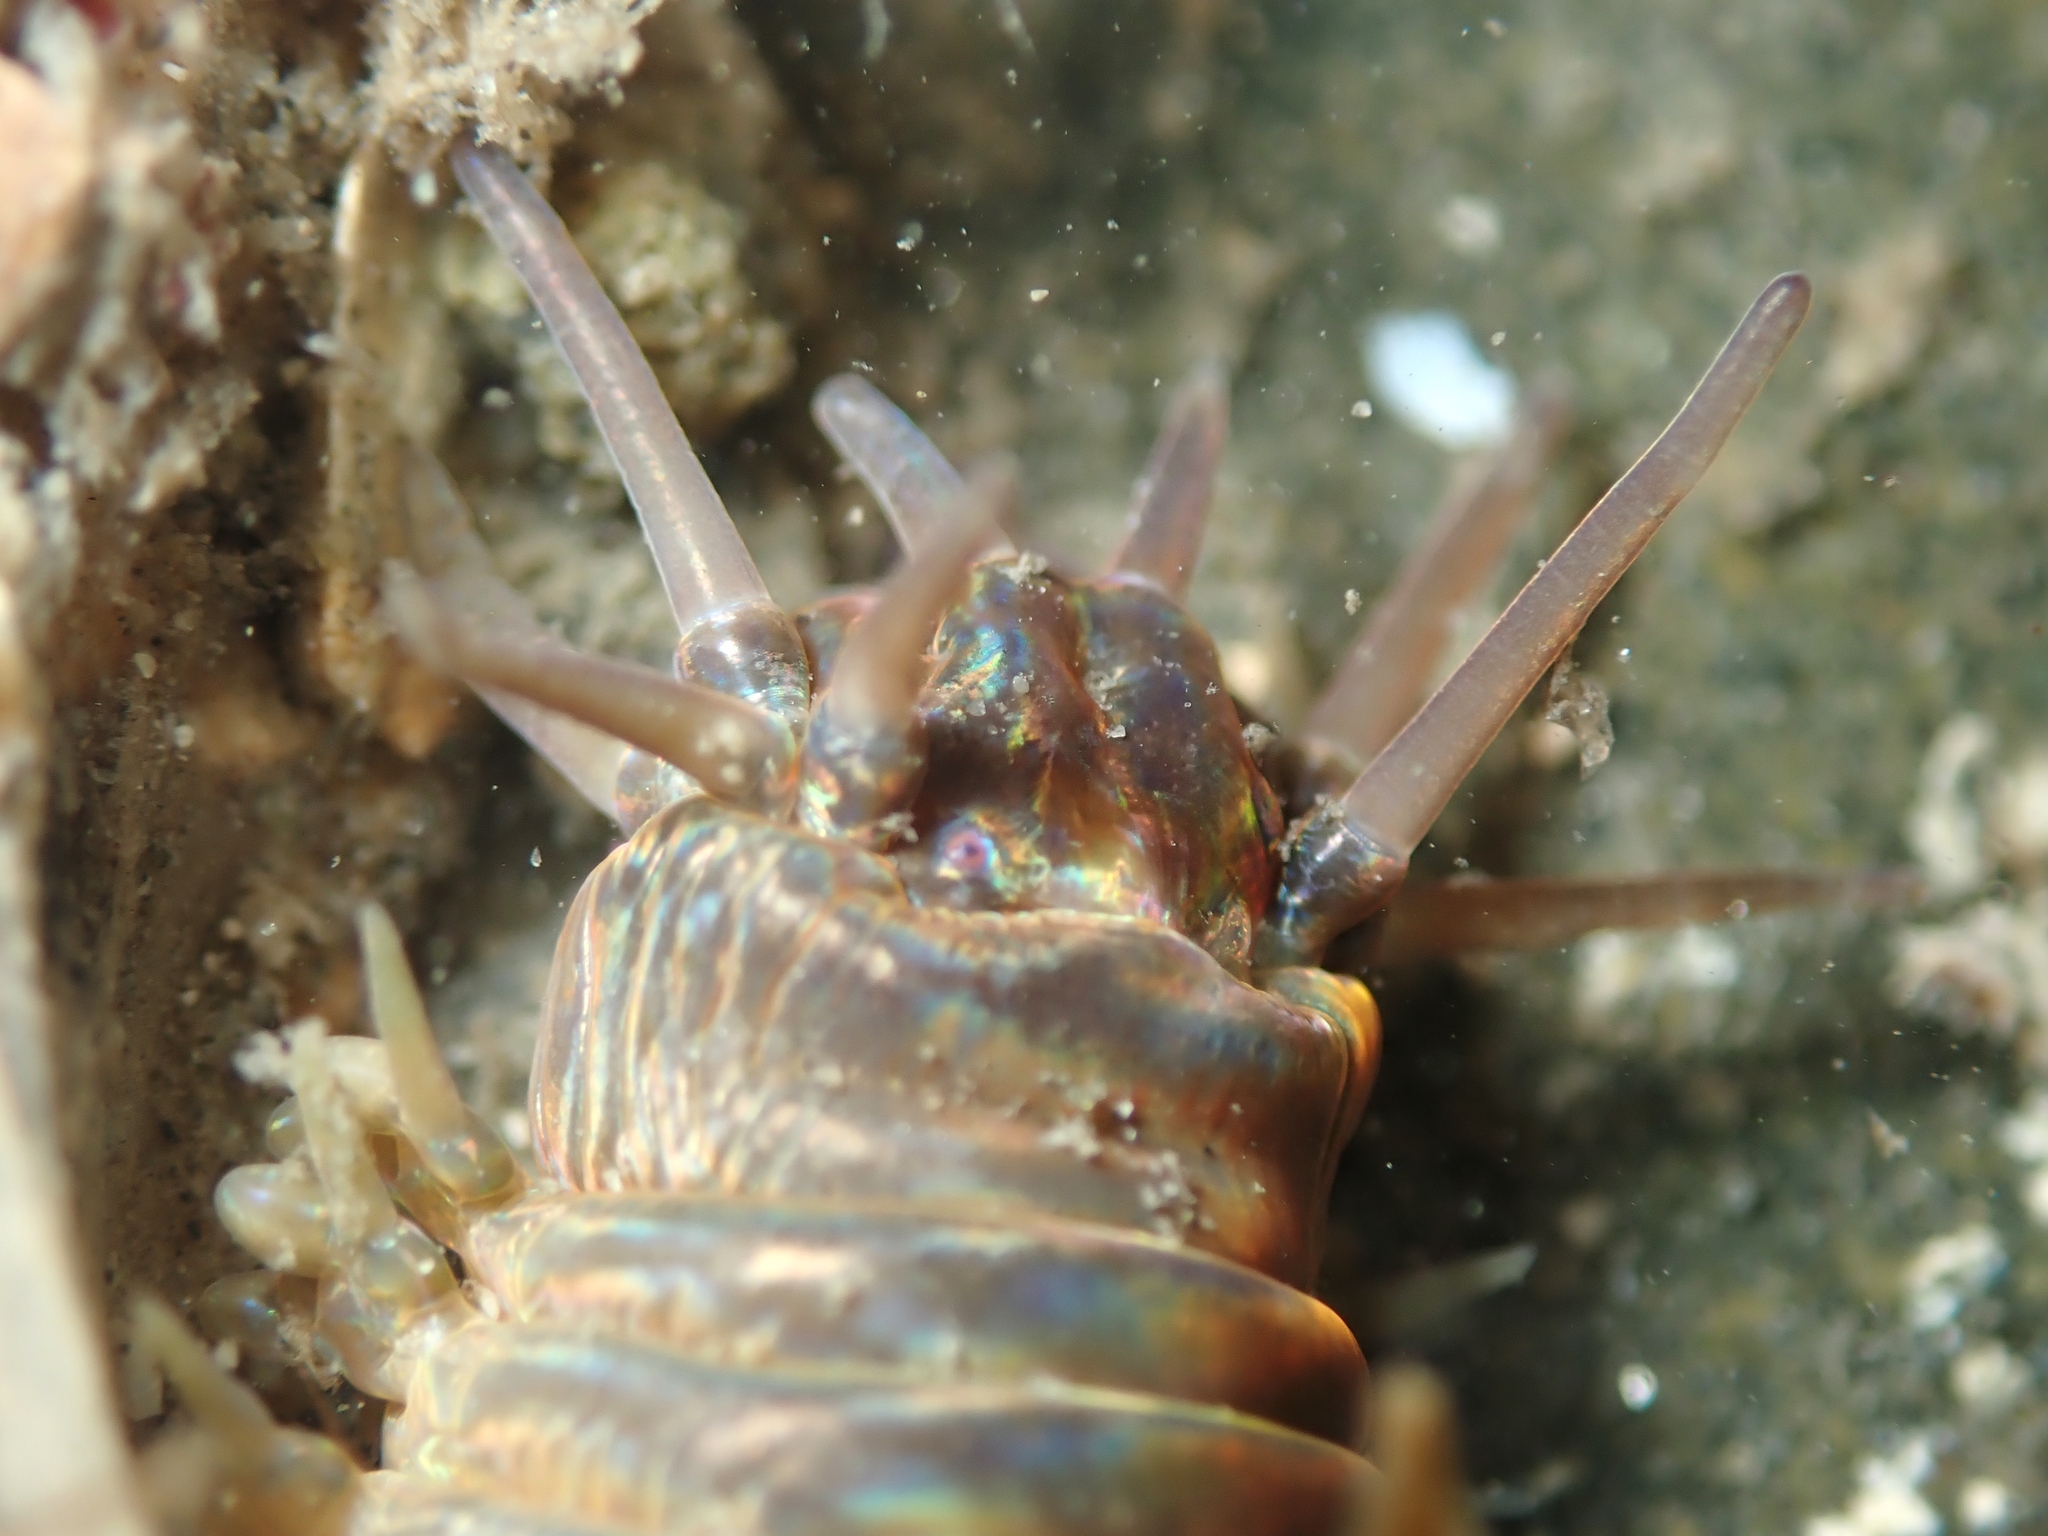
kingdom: Animalia
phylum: Annelida
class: Polychaeta
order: Phyllodocida
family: Nereididae
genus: Perinereis
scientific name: Perinereis amblyodonta
